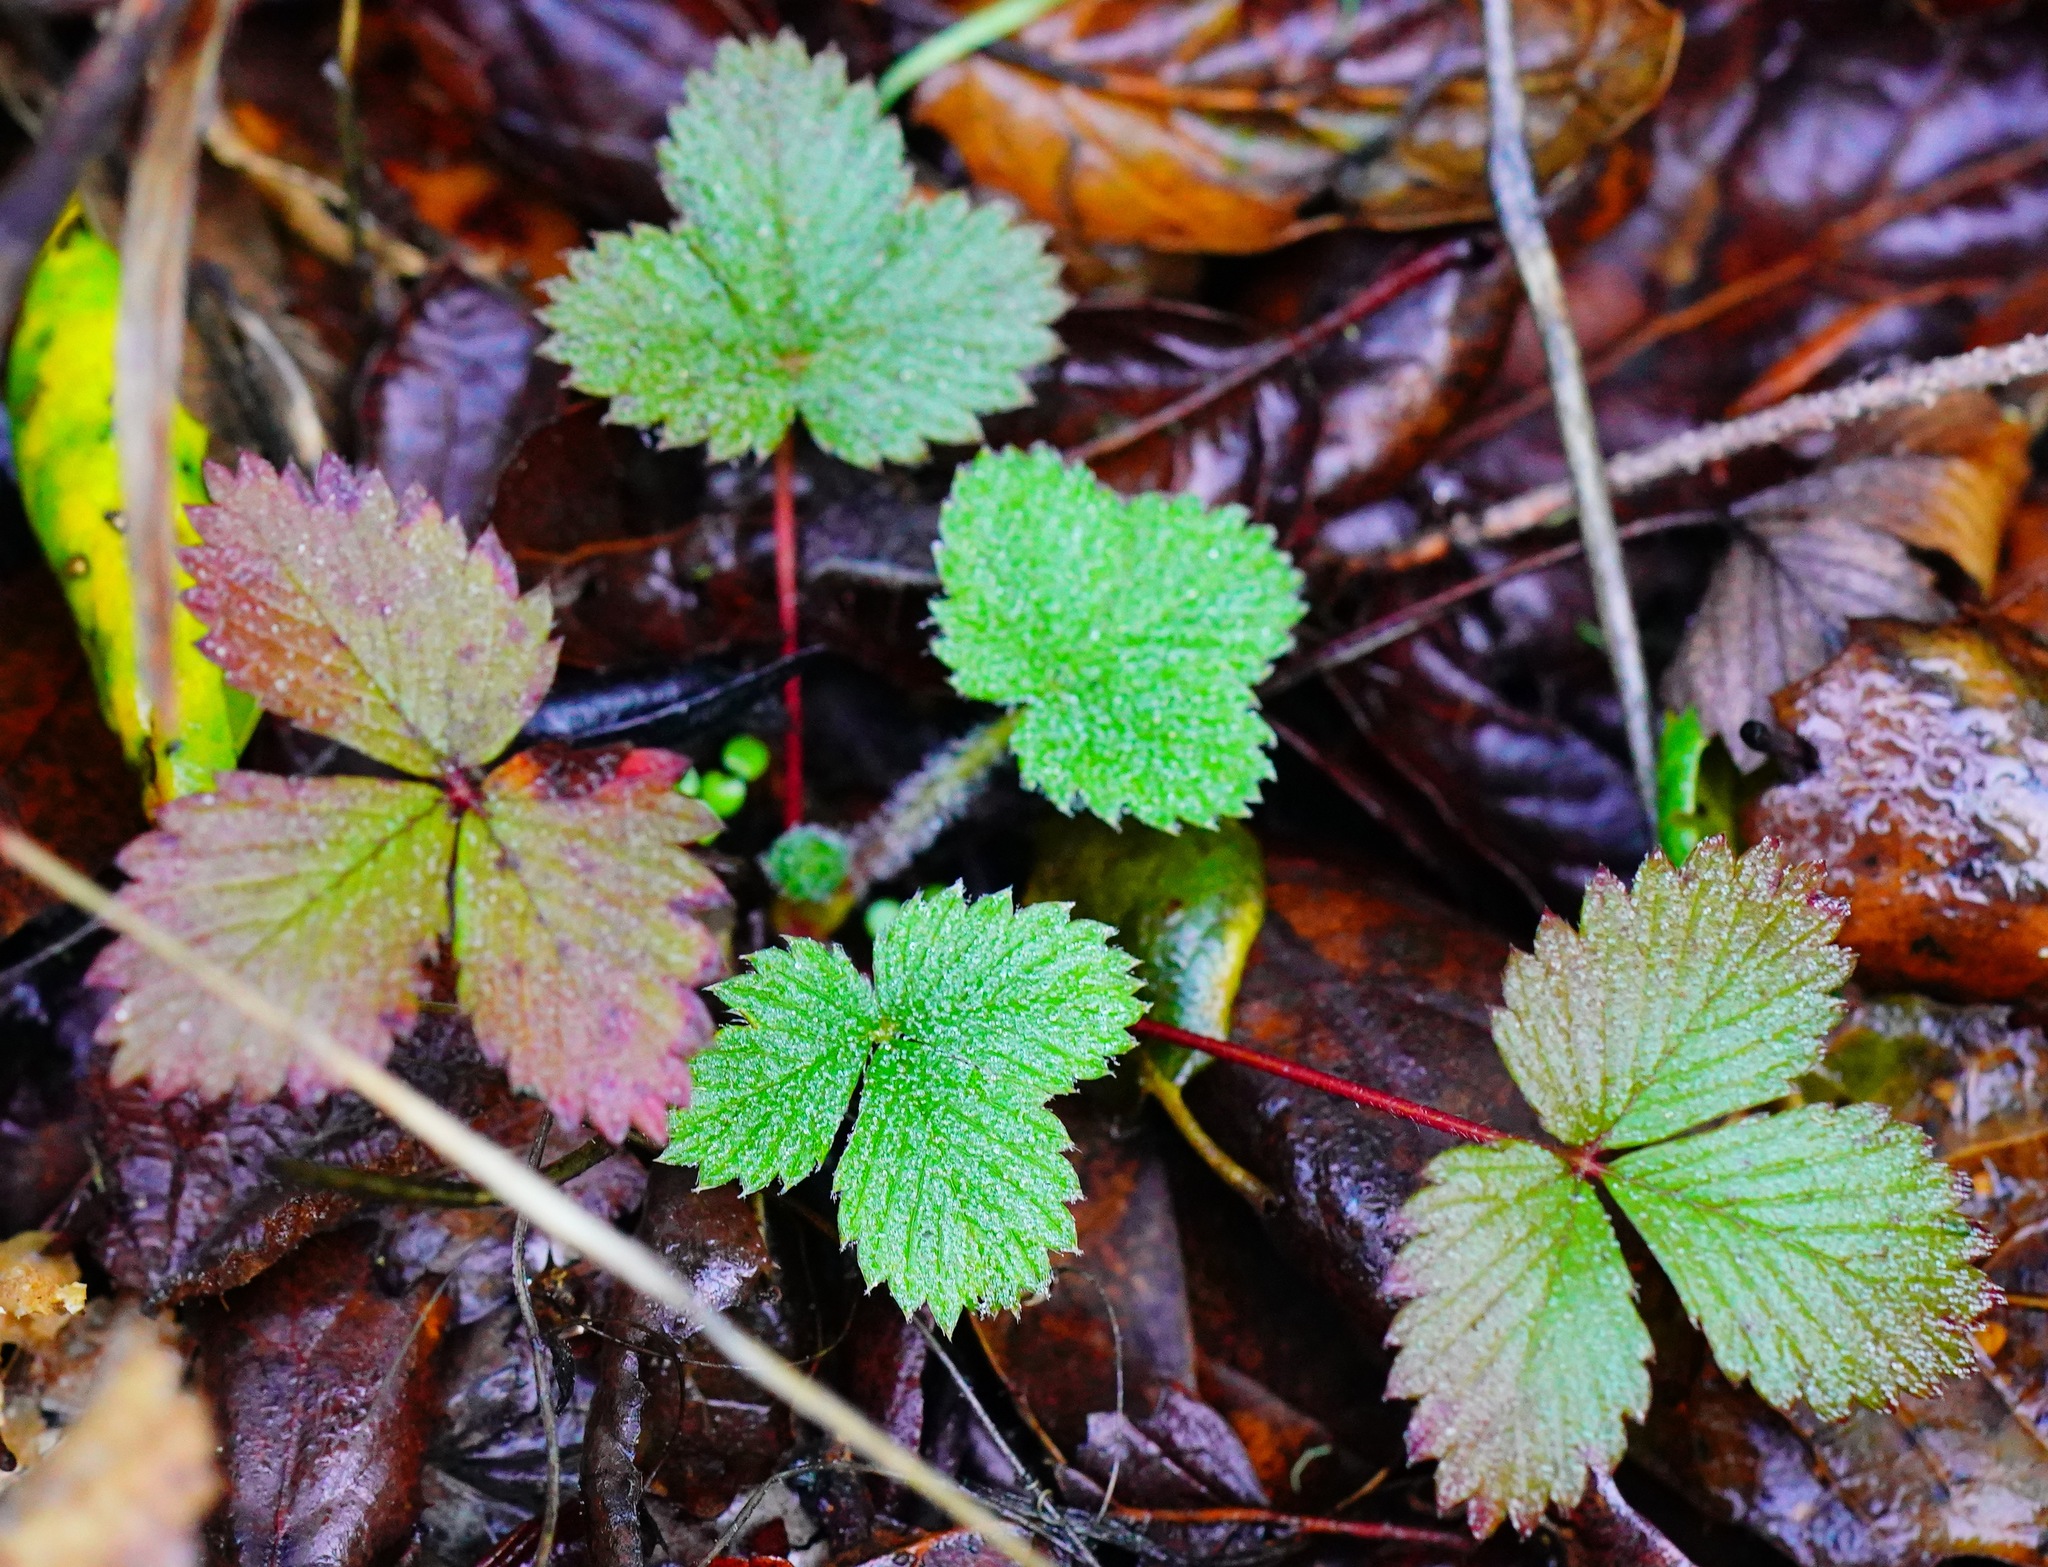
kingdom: Plantae
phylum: Tracheophyta
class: Magnoliopsida
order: Rosales
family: Rosaceae
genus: Fragaria
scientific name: Fragaria vesca
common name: Wild strawberry
